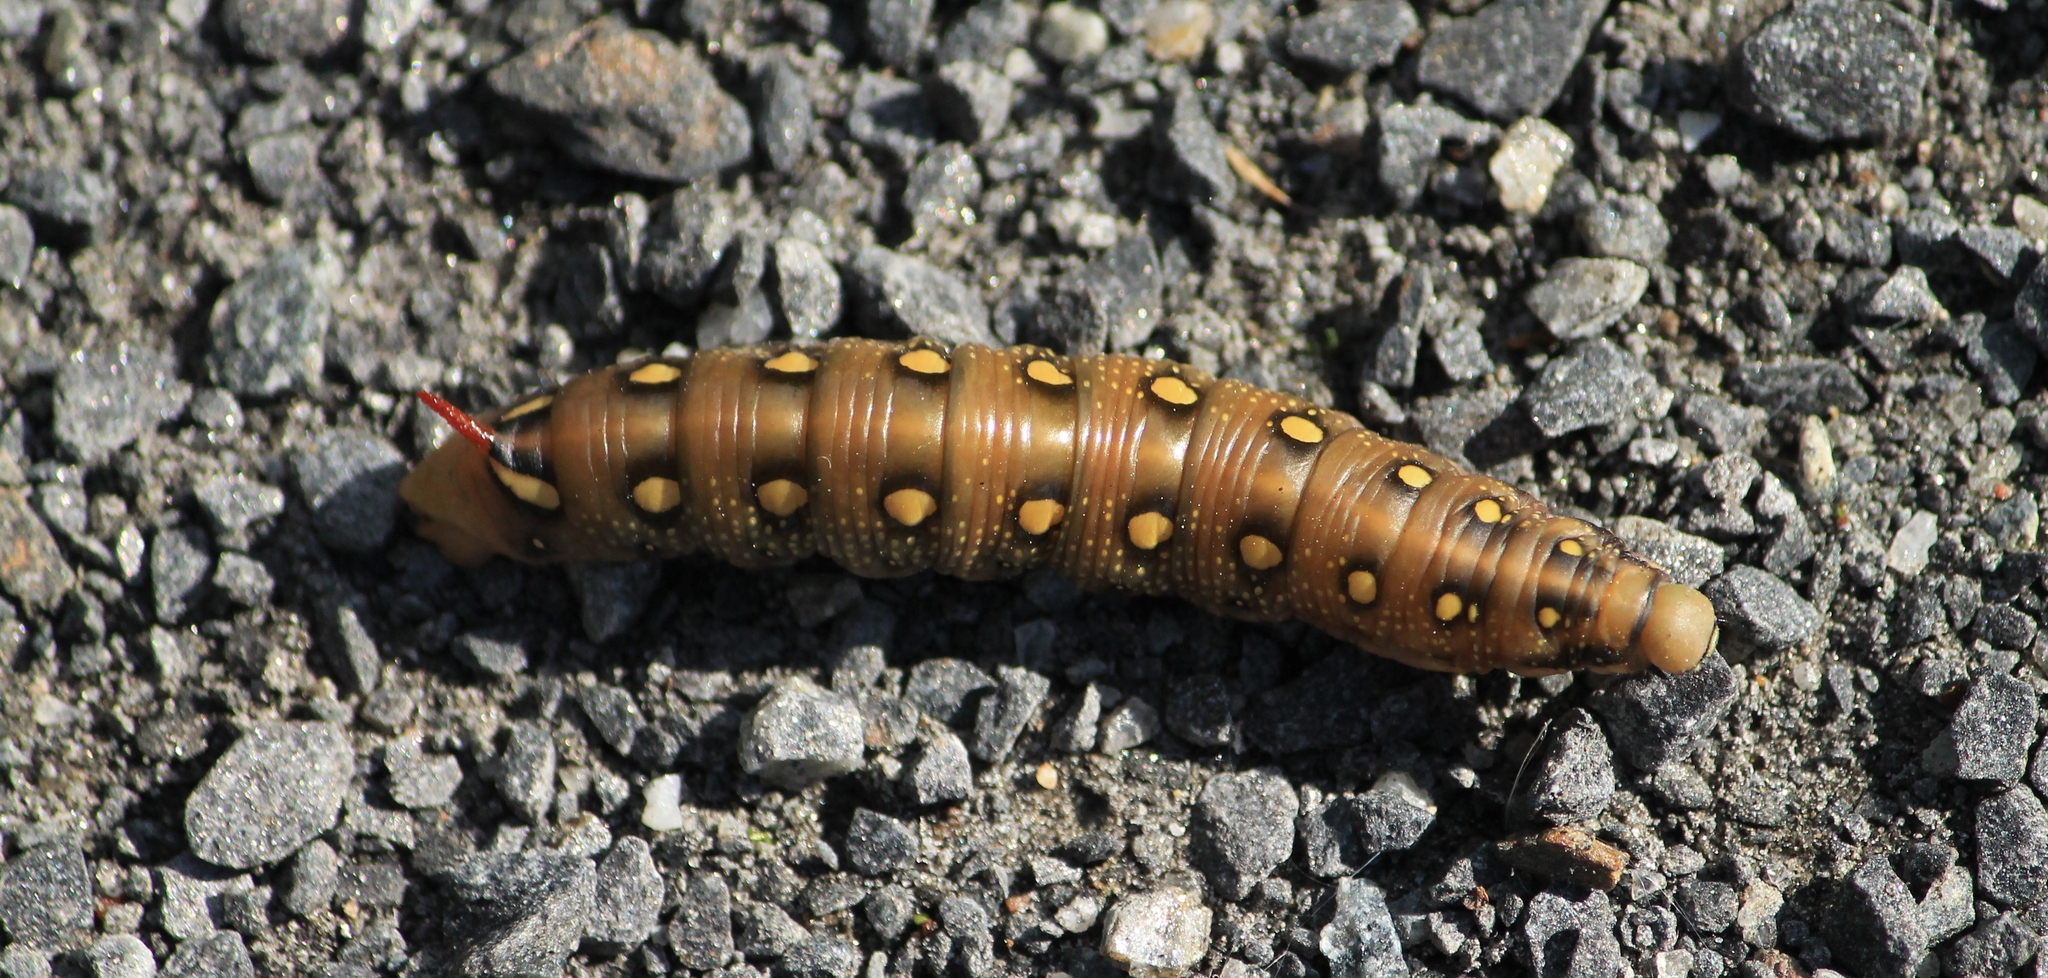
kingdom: Animalia
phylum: Arthropoda
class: Insecta
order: Lepidoptera
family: Sphingidae
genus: Hyles
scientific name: Hyles gallii
